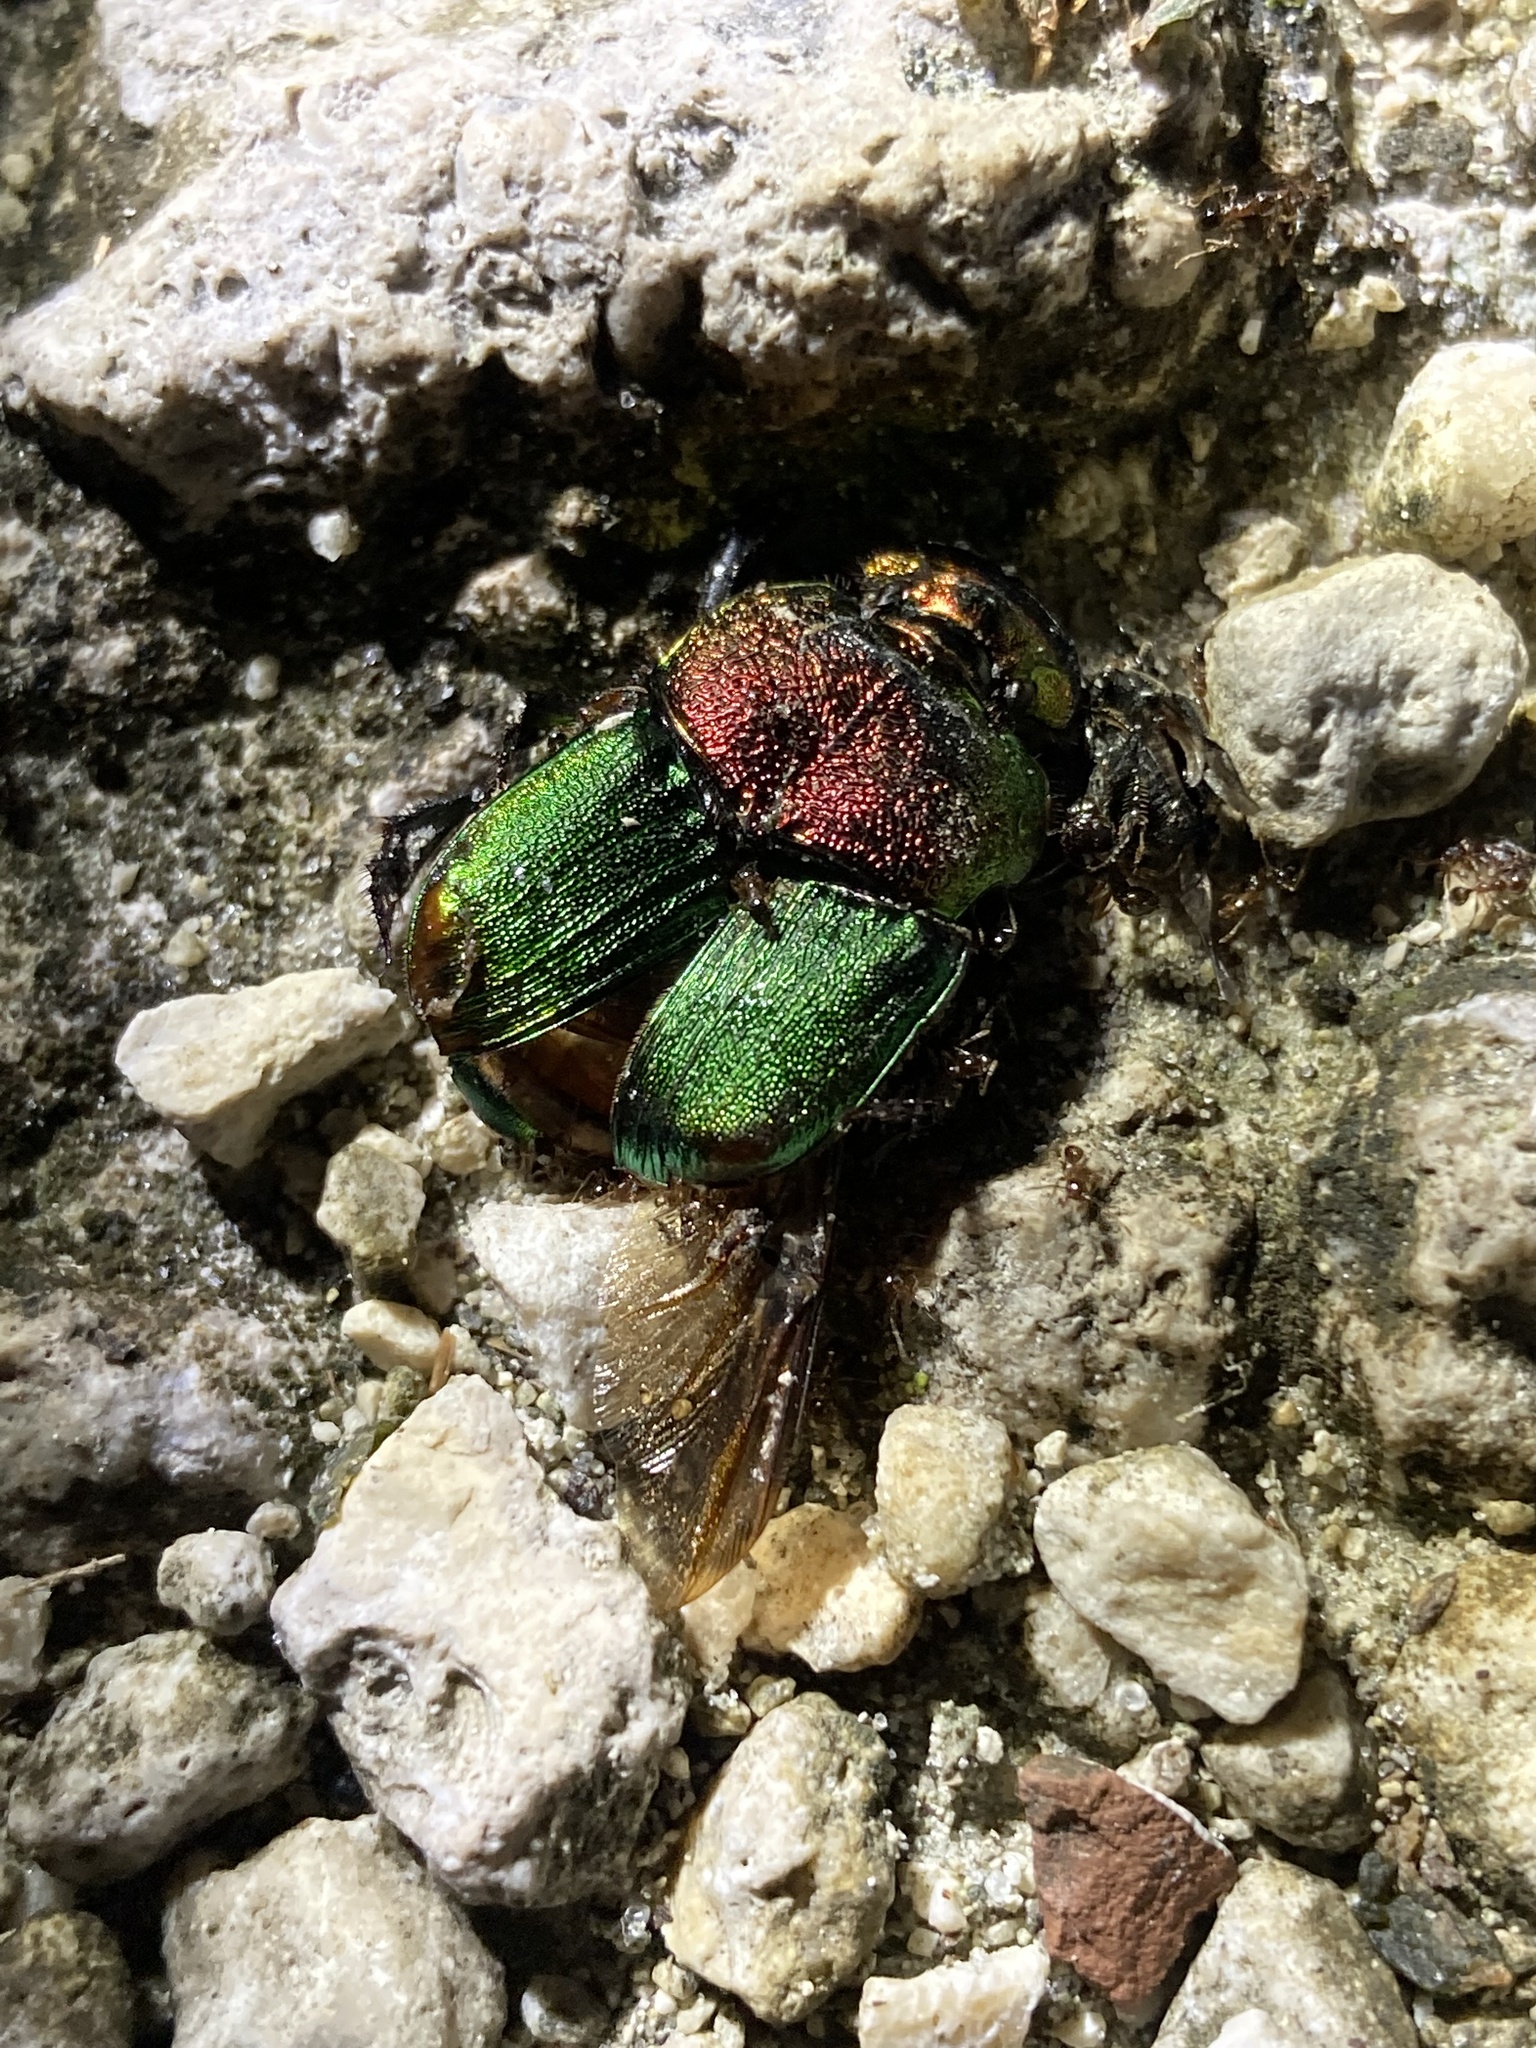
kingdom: Animalia
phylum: Arthropoda
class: Insecta
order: Coleoptera
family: Scarabaeidae
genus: Phanaeus
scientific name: Phanaeus vindex
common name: Rainbow scarab
